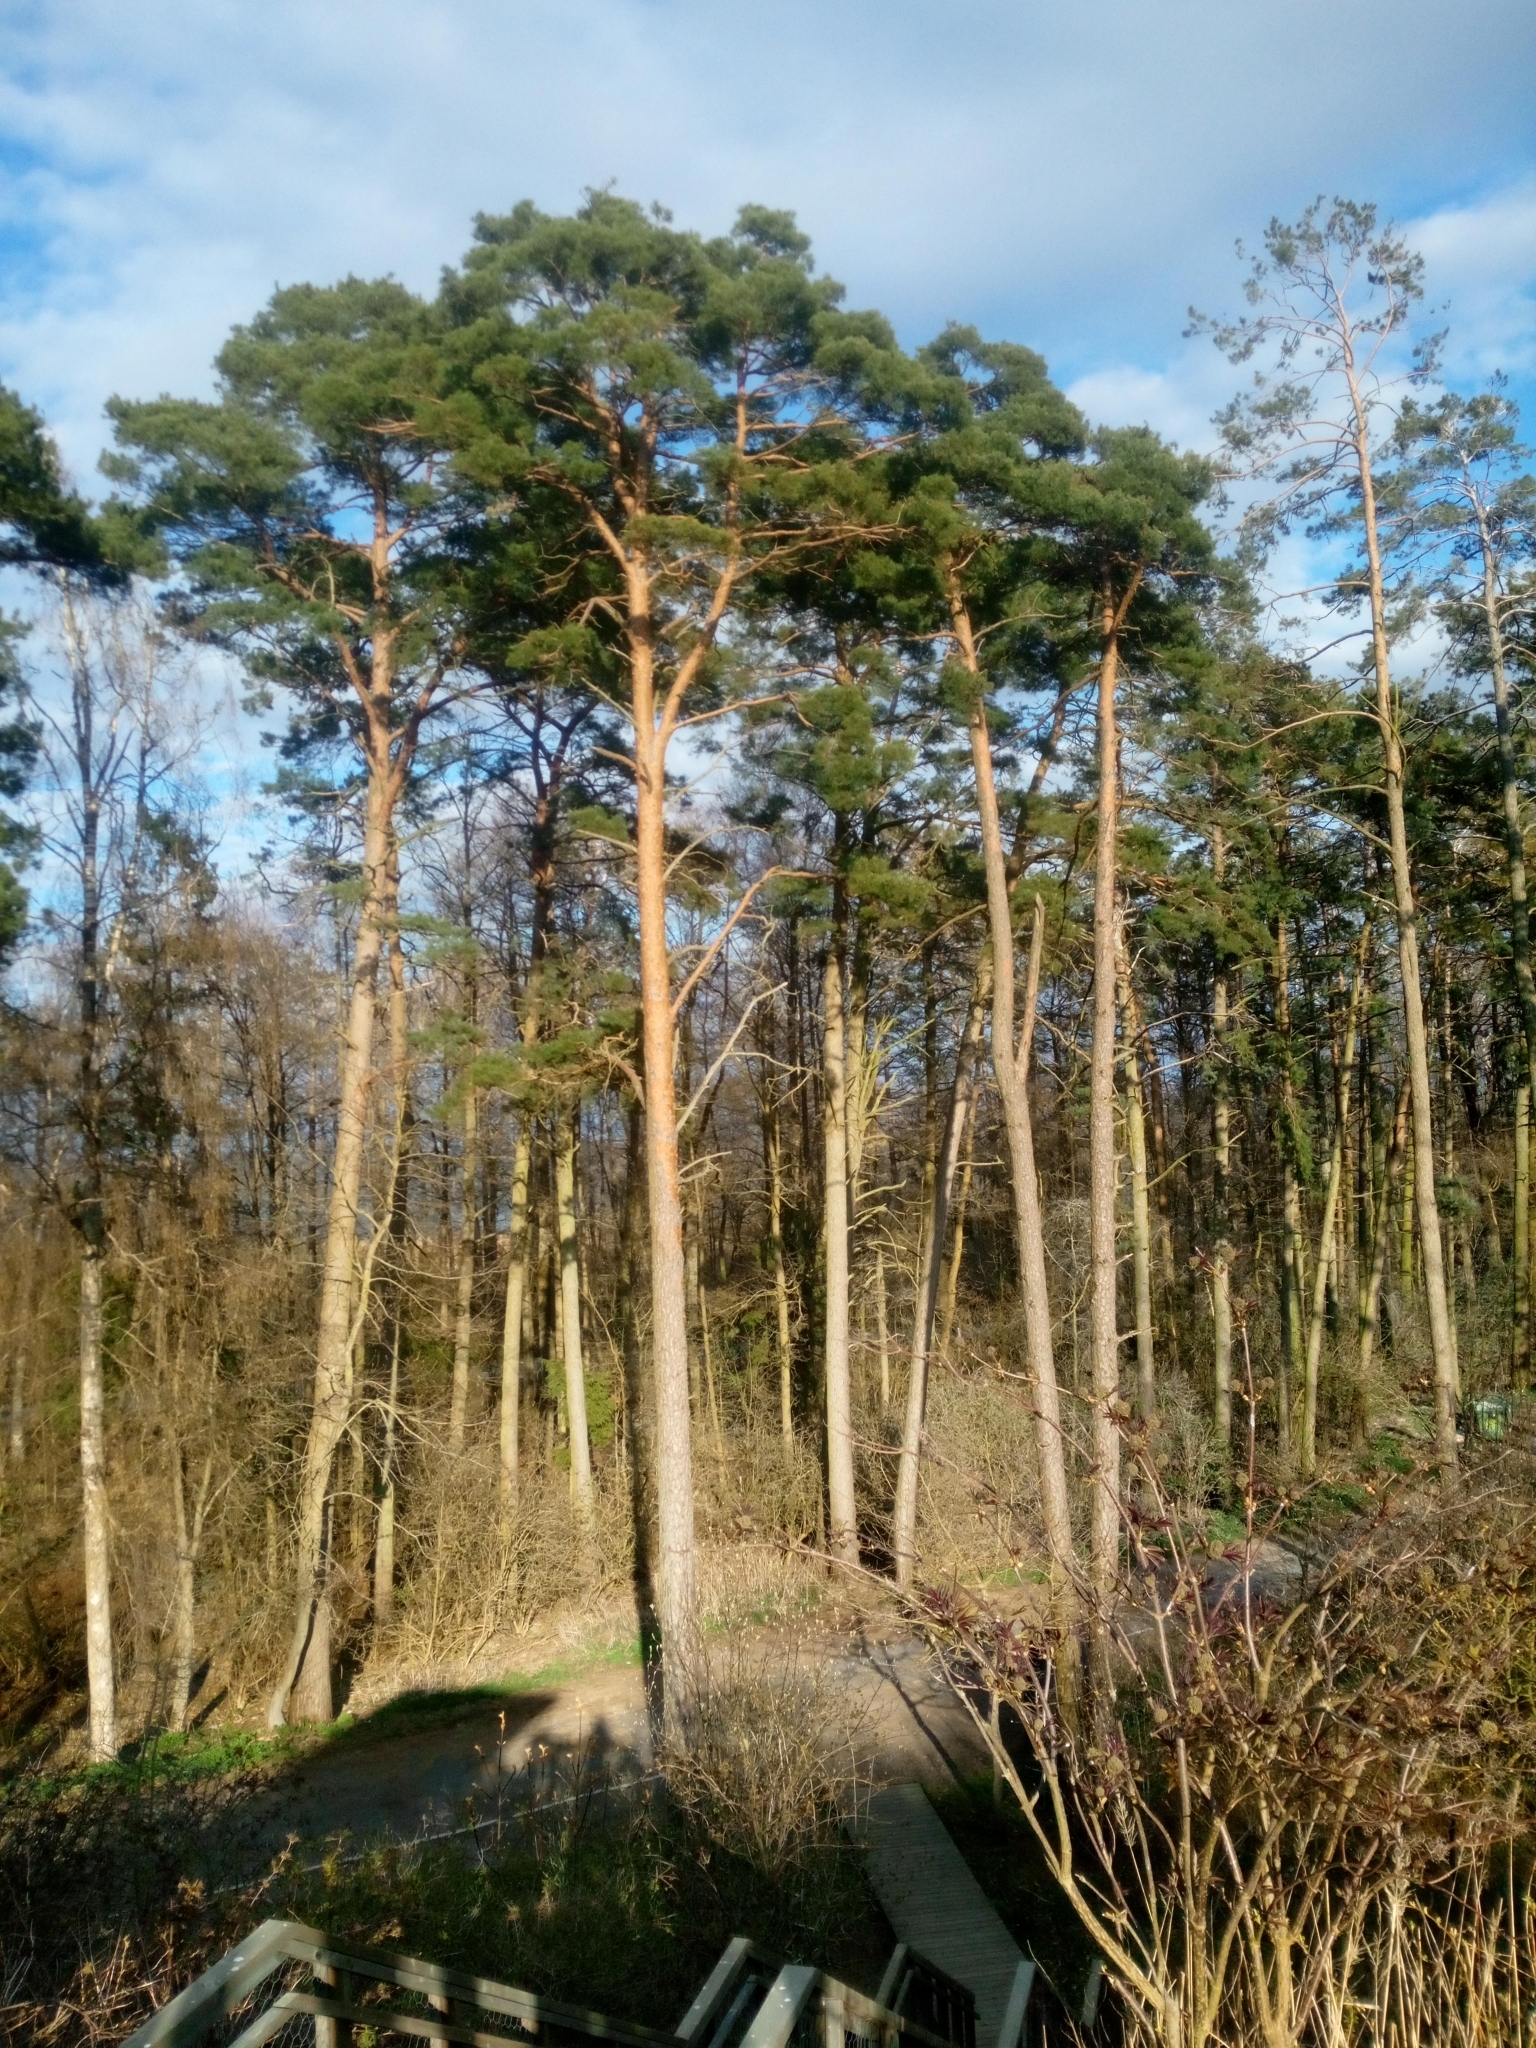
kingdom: Plantae
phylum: Tracheophyta
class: Pinopsida
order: Pinales
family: Pinaceae
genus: Pinus
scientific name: Pinus sylvestris
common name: Scots pine
